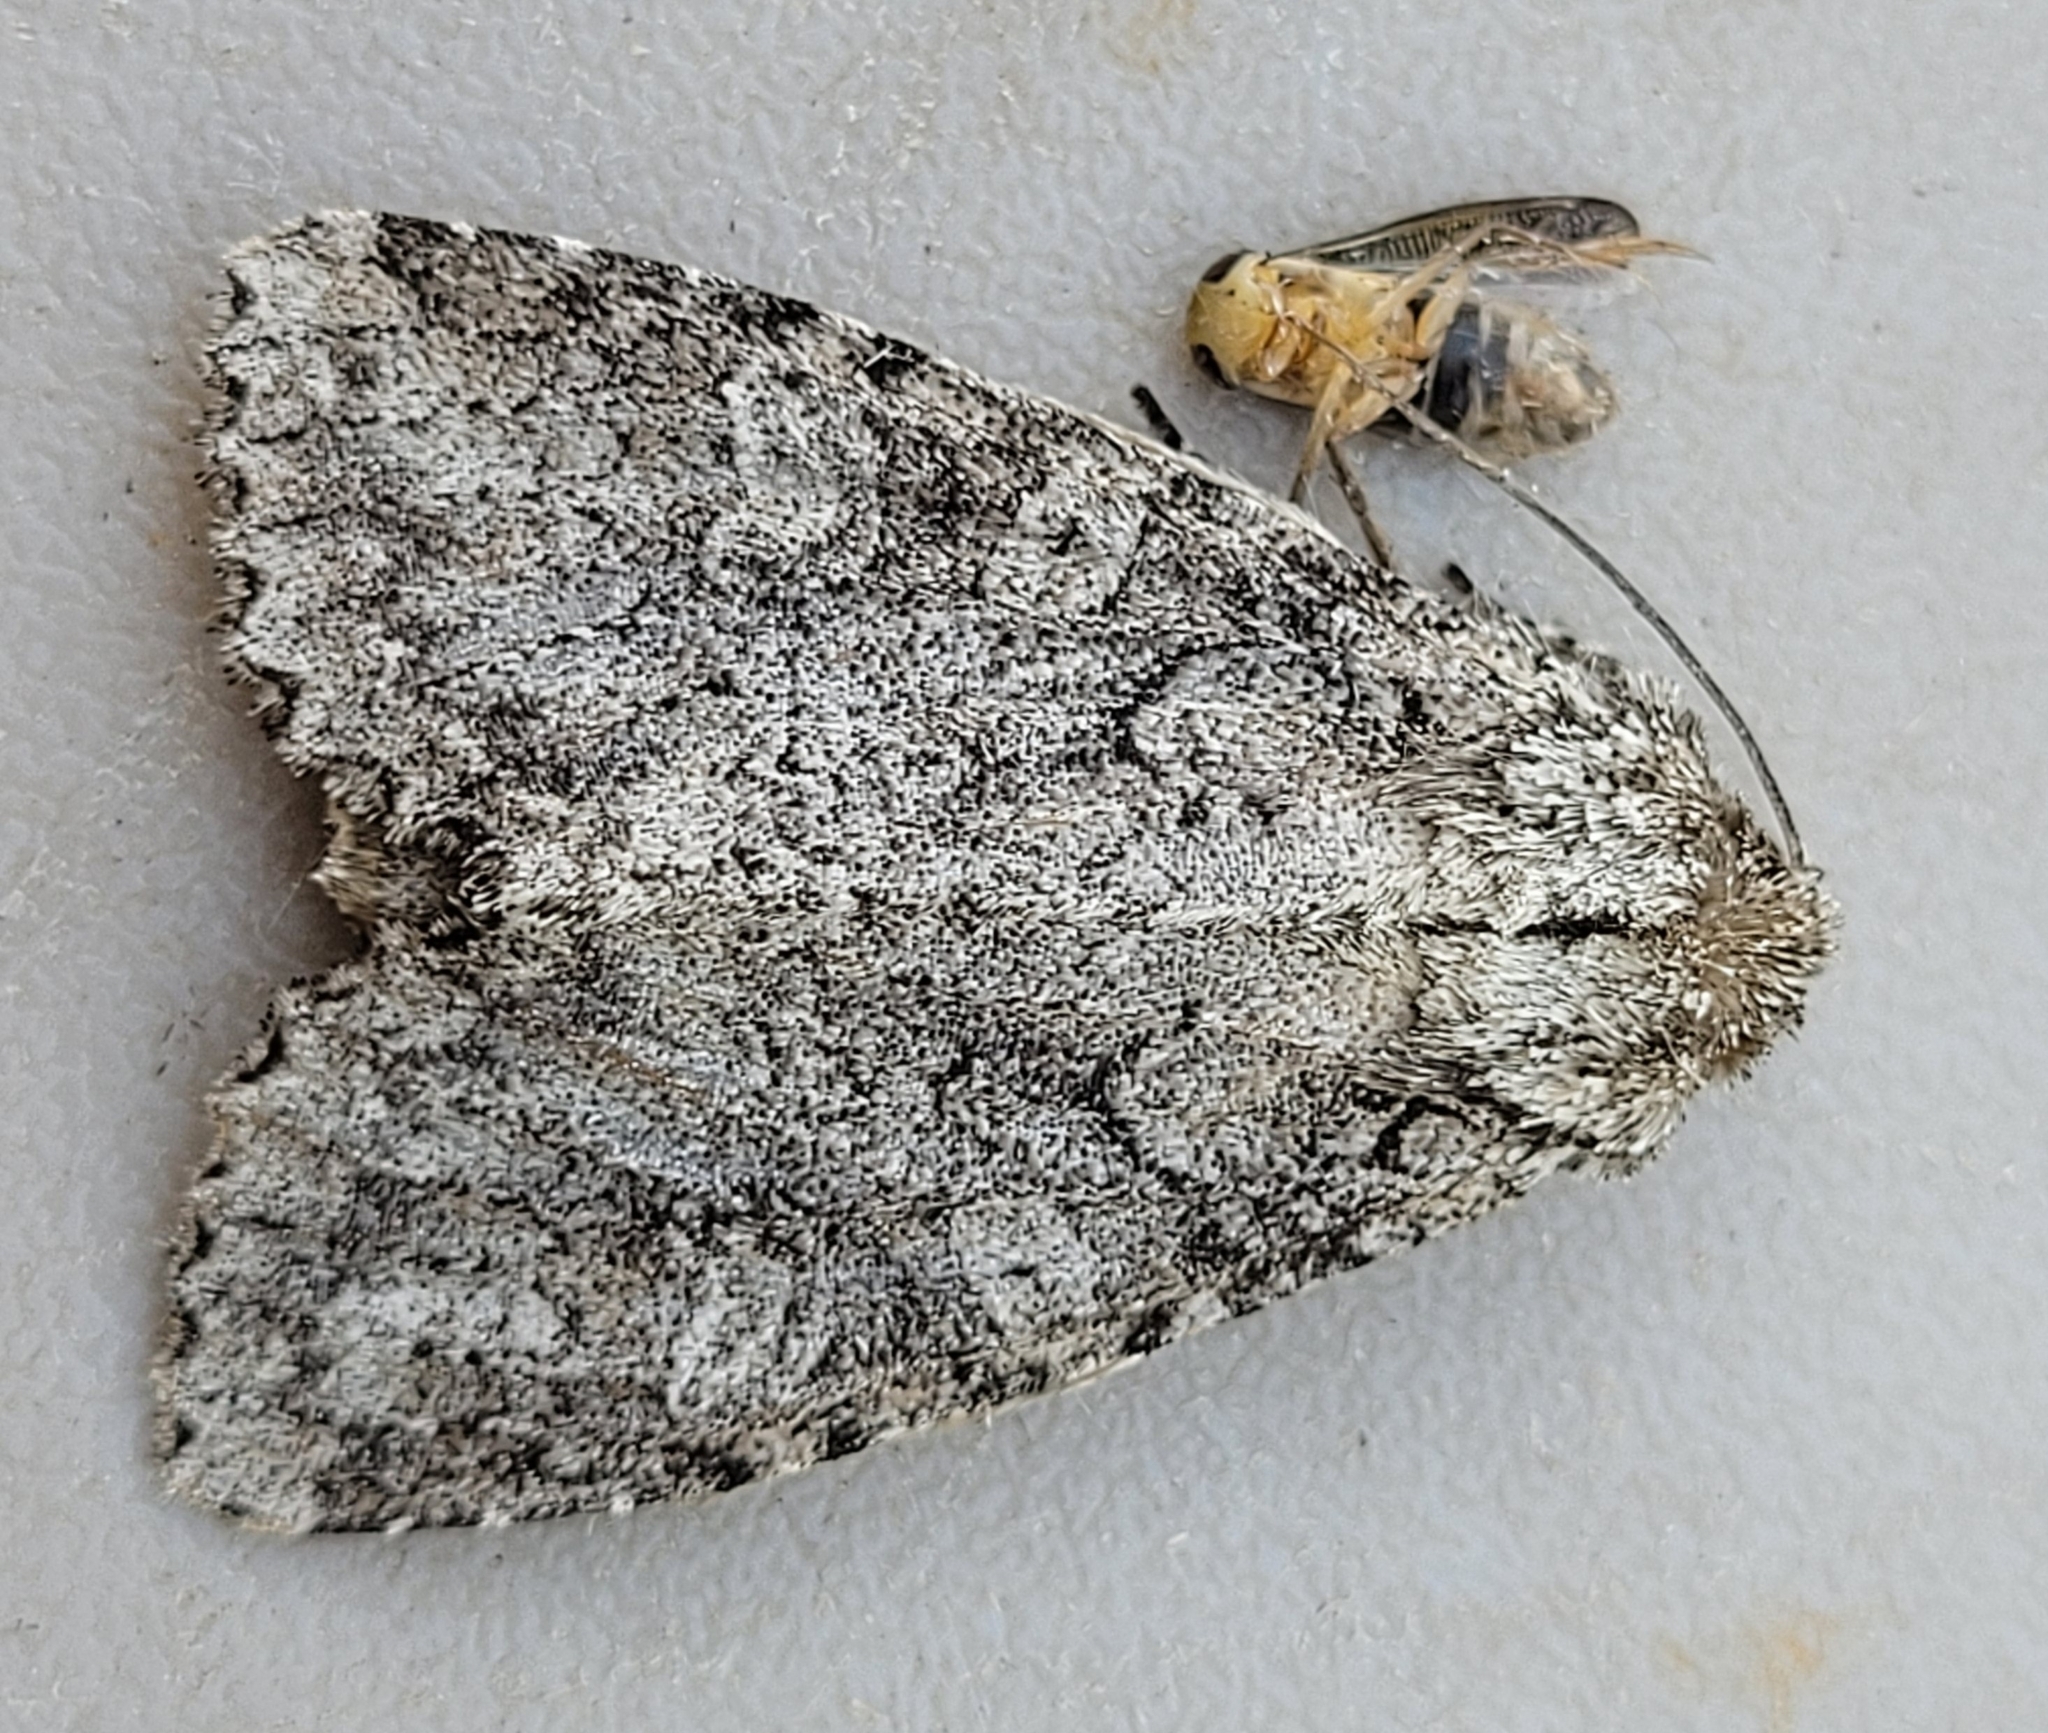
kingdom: Animalia
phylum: Arthropoda
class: Insecta
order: Lepidoptera
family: Noctuidae
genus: Polia
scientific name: Polia imbrifera
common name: Cloudy arches moth
